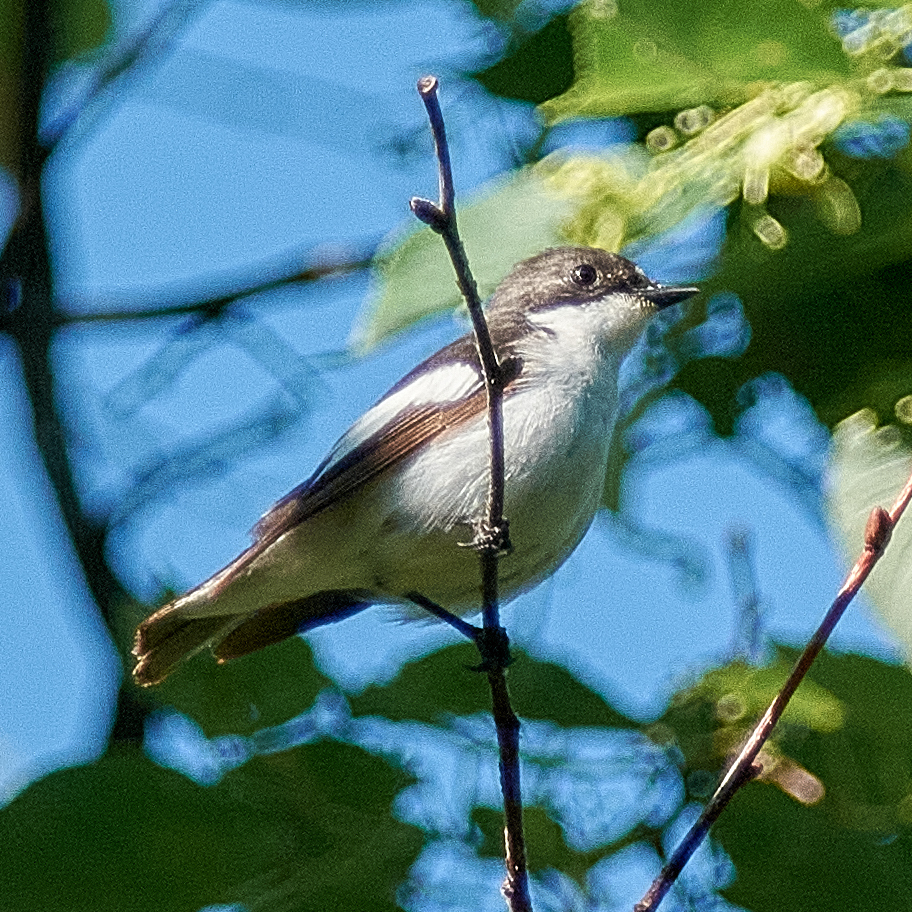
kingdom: Animalia
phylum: Chordata
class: Aves
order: Passeriformes
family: Muscicapidae
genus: Ficedula
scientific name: Ficedula hypoleuca
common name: European pied flycatcher
